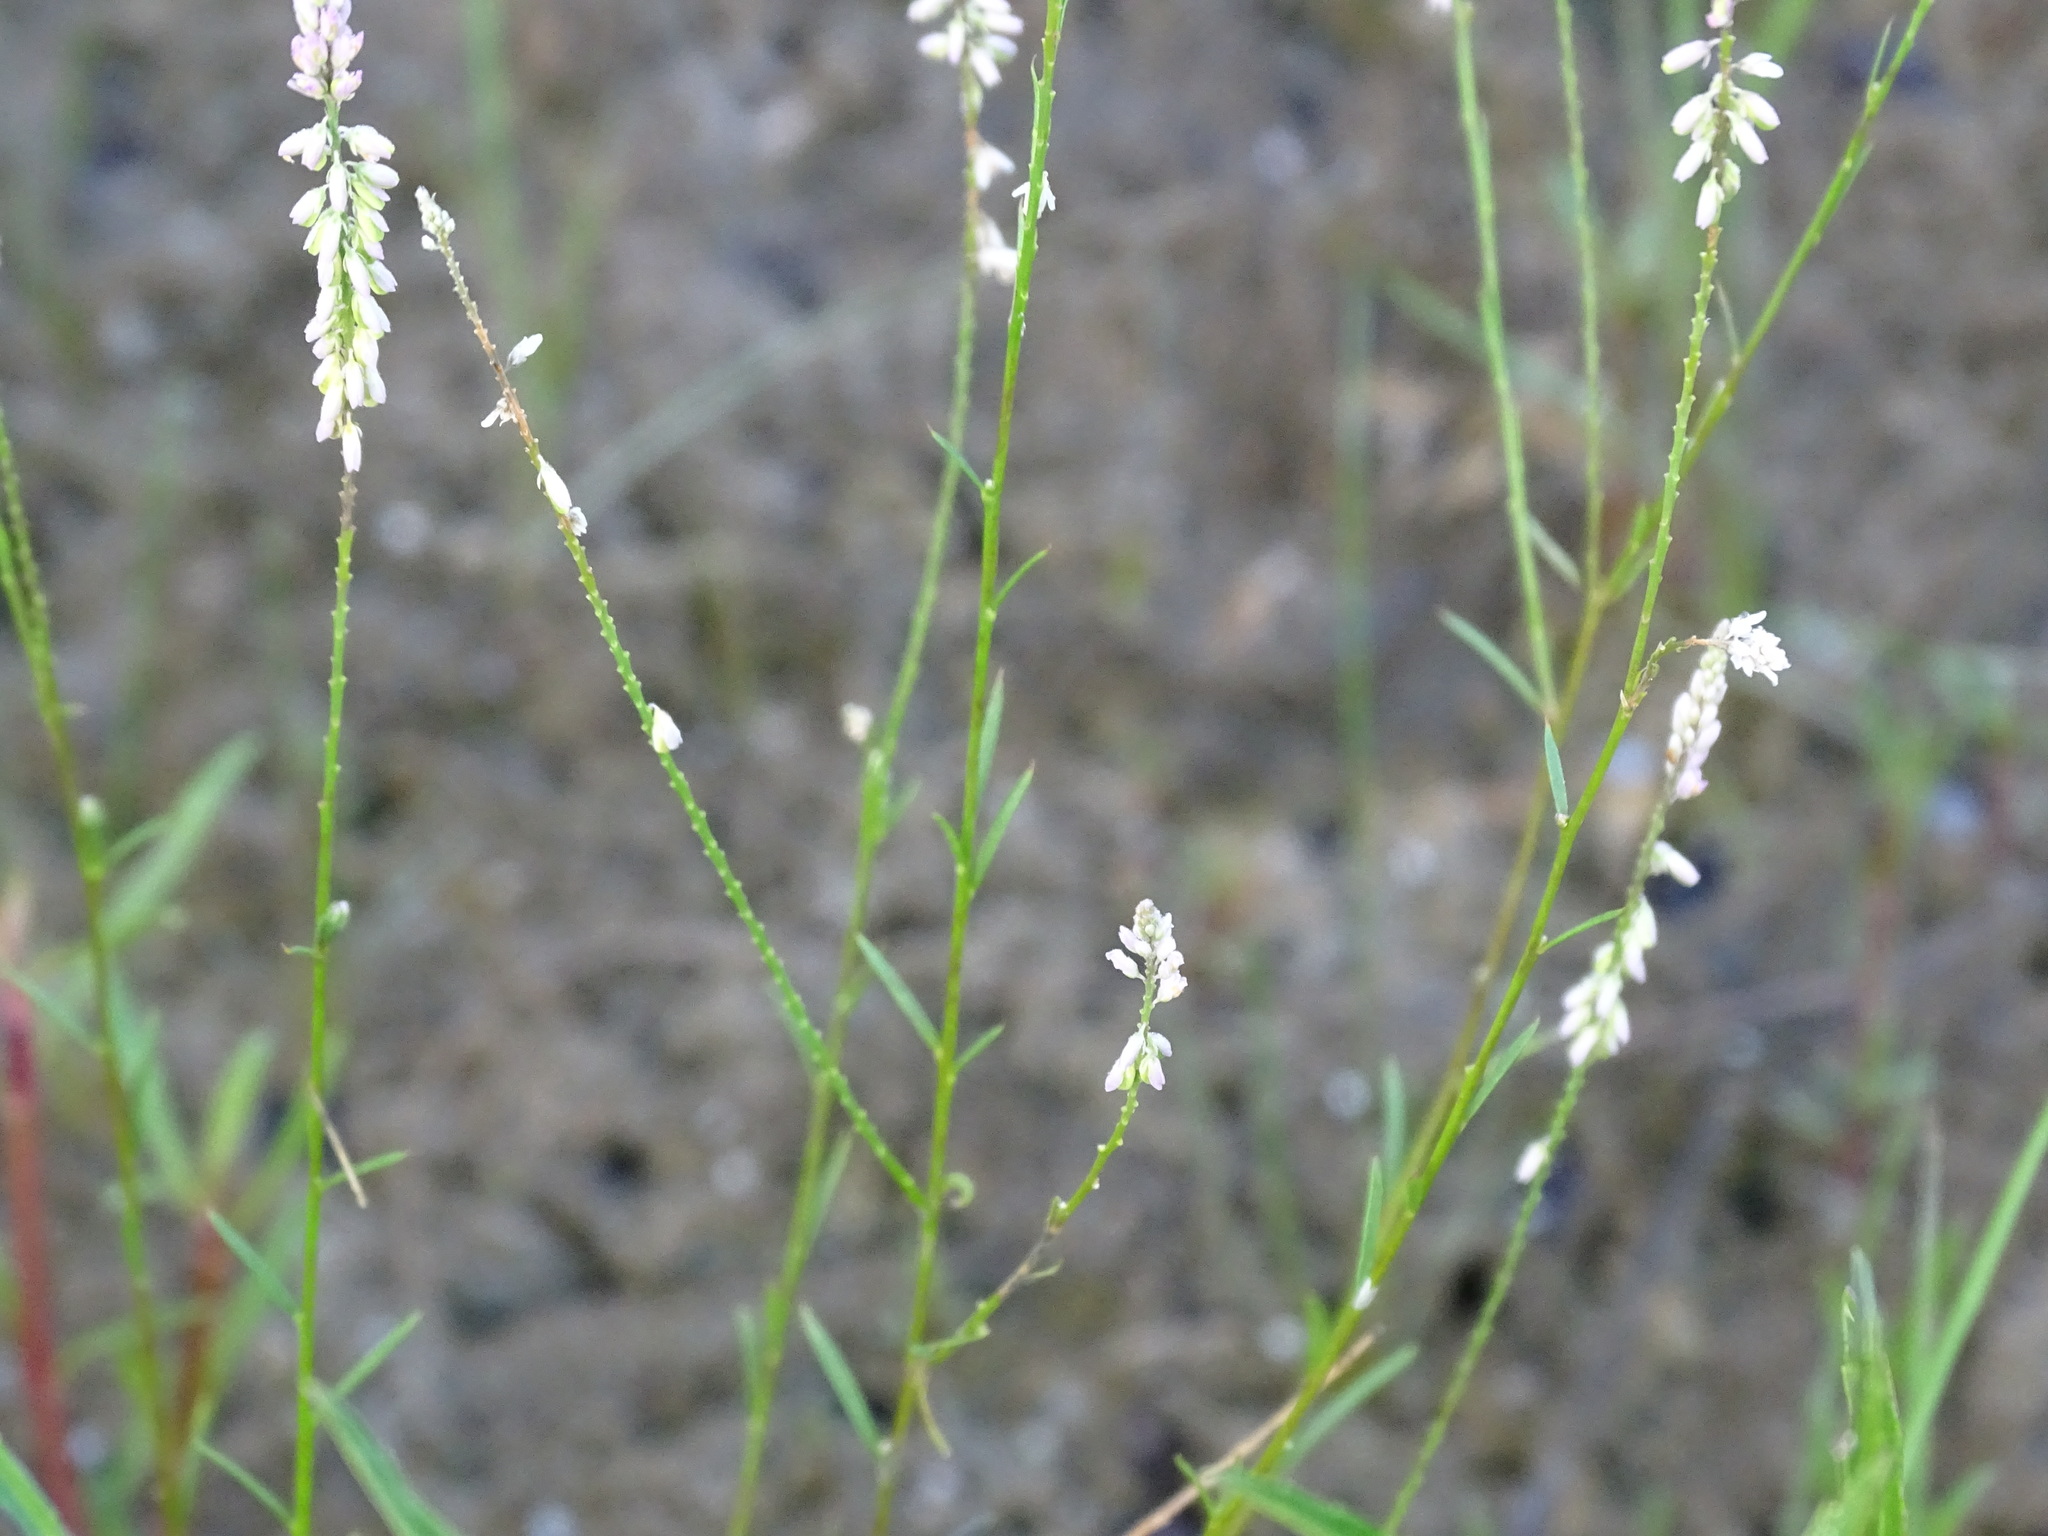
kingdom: Plantae
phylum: Tracheophyta
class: Magnoliopsida
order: Fabales
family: Polygalaceae
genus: Polygala
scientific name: Polygala tenella
